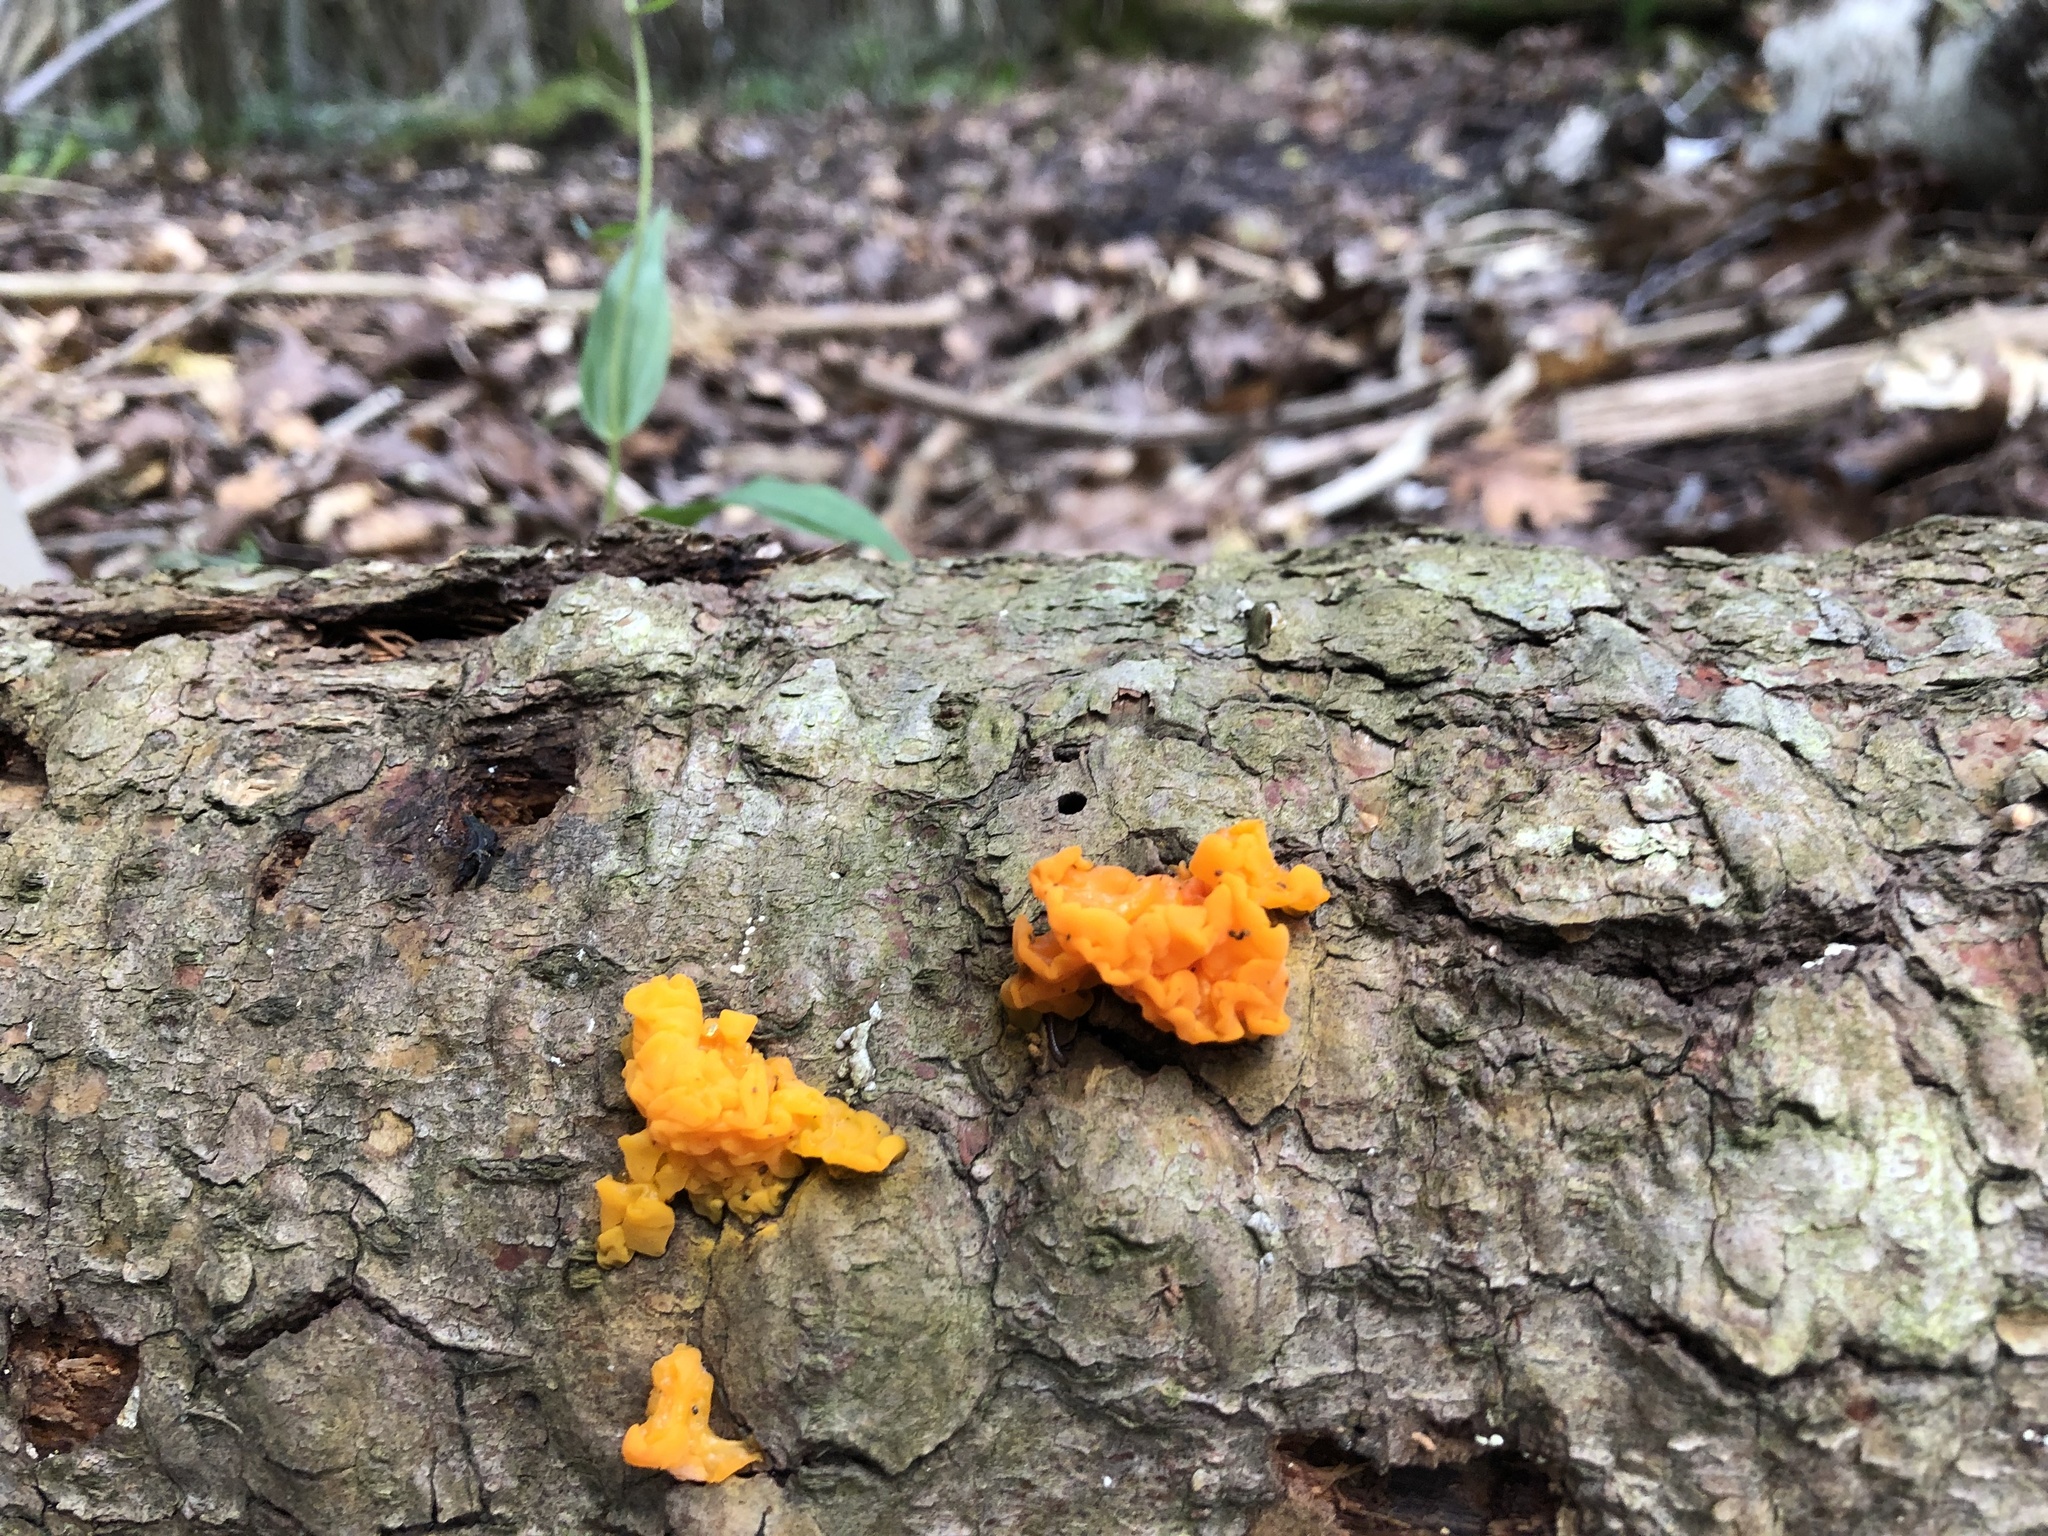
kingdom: Fungi
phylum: Basidiomycota
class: Dacrymycetes
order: Dacrymycetales
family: Dacrymycetaceae
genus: Dacrymyces
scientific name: Dacrymyces chrysospermus
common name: Orange jelly spot
